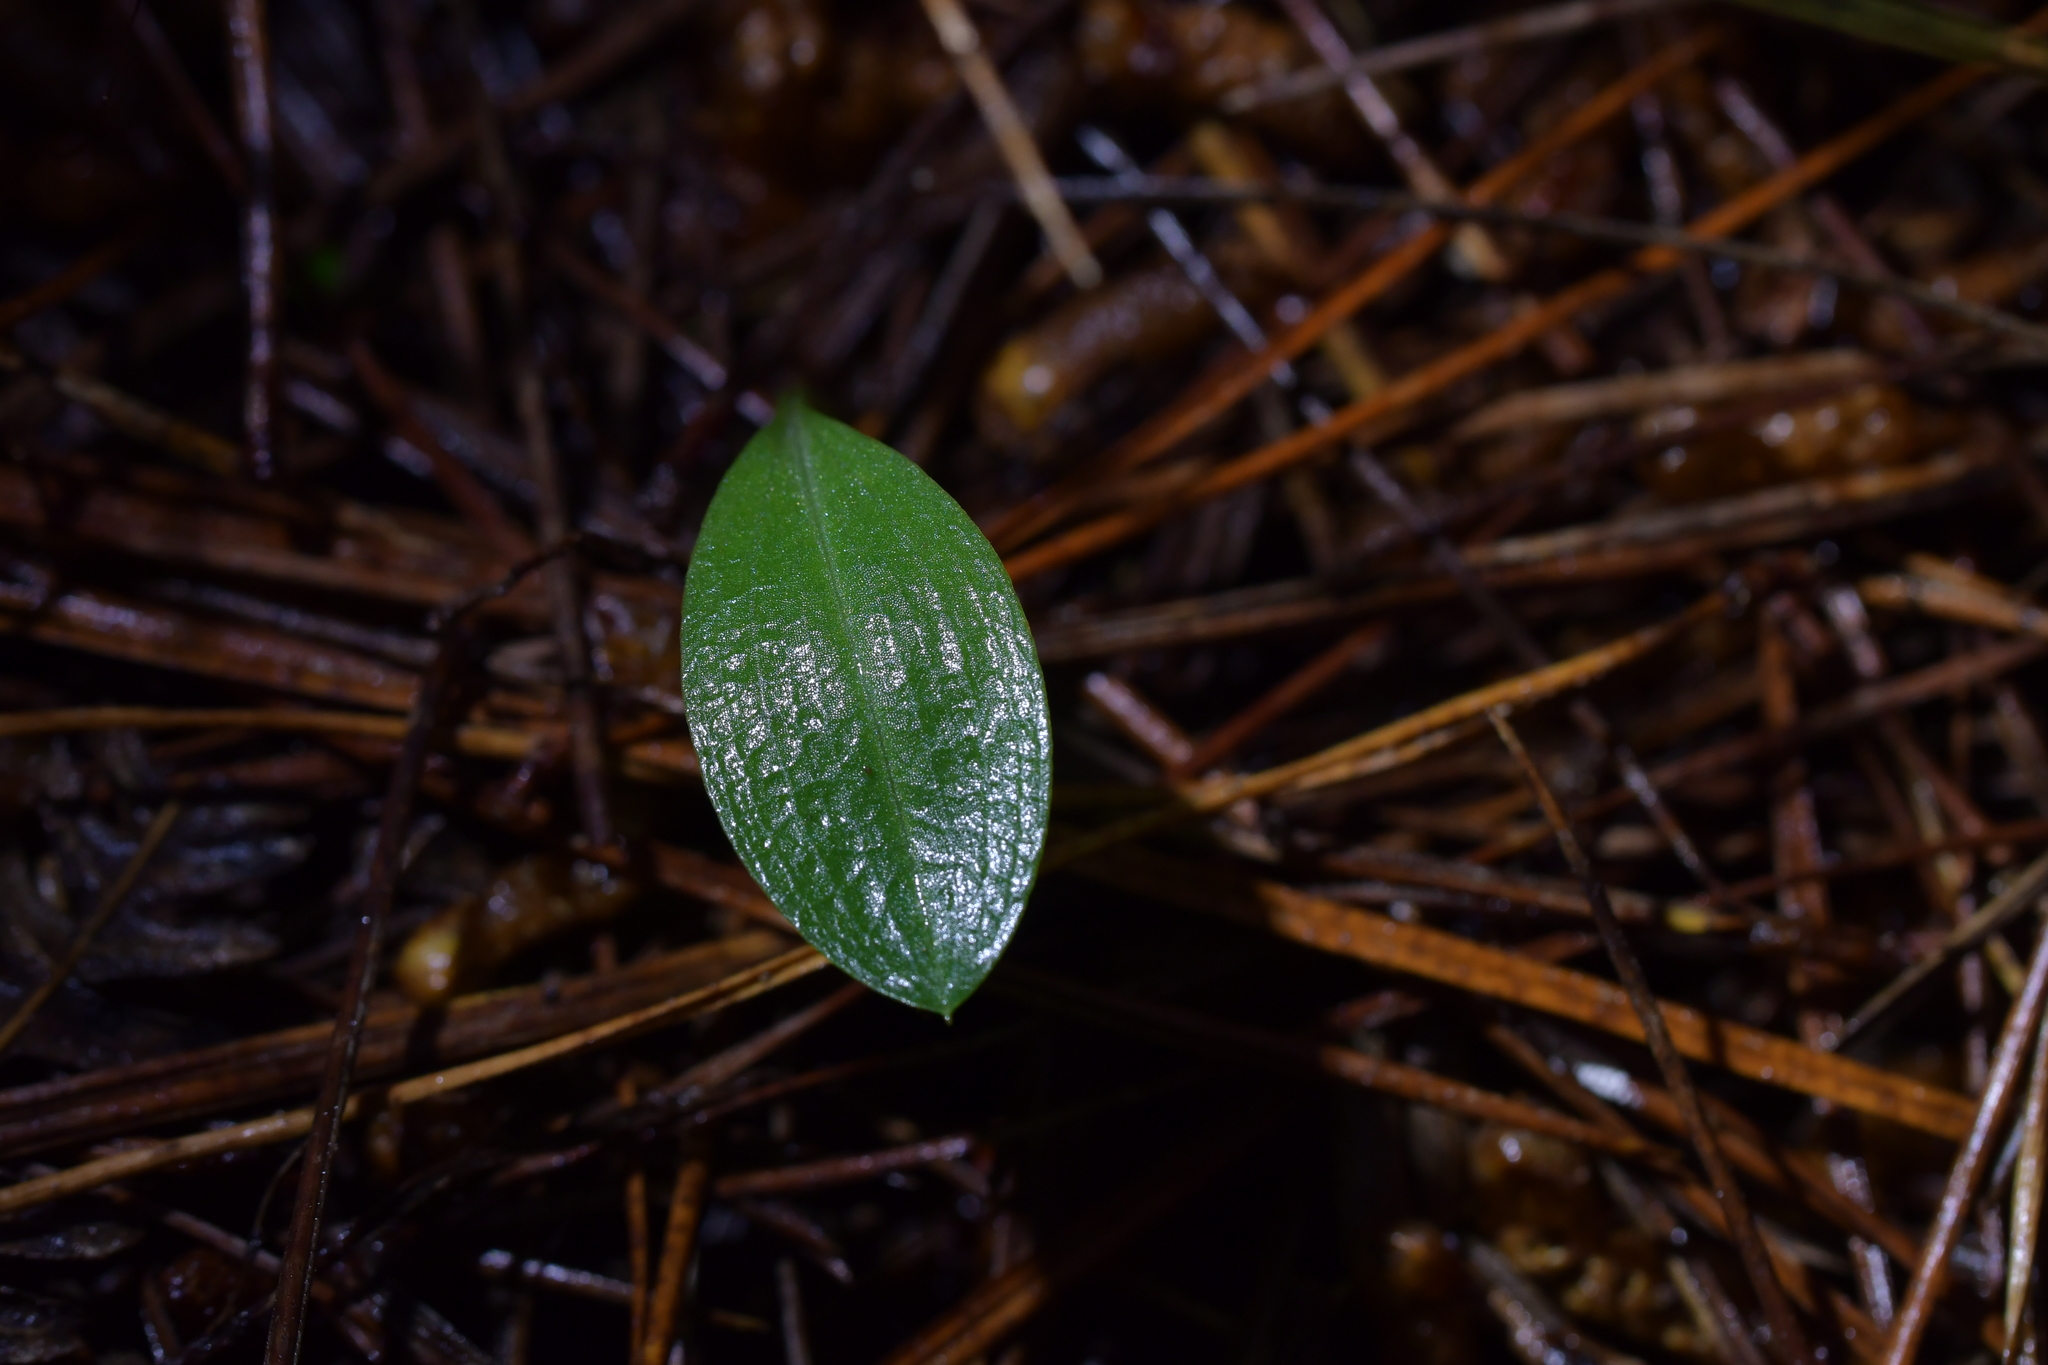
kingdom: Plantae
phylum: Tracheophyta
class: Liliopsida
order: Asparagales
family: Orchidaceae
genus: Chiloglottis
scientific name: Chiloglottis cornuta
